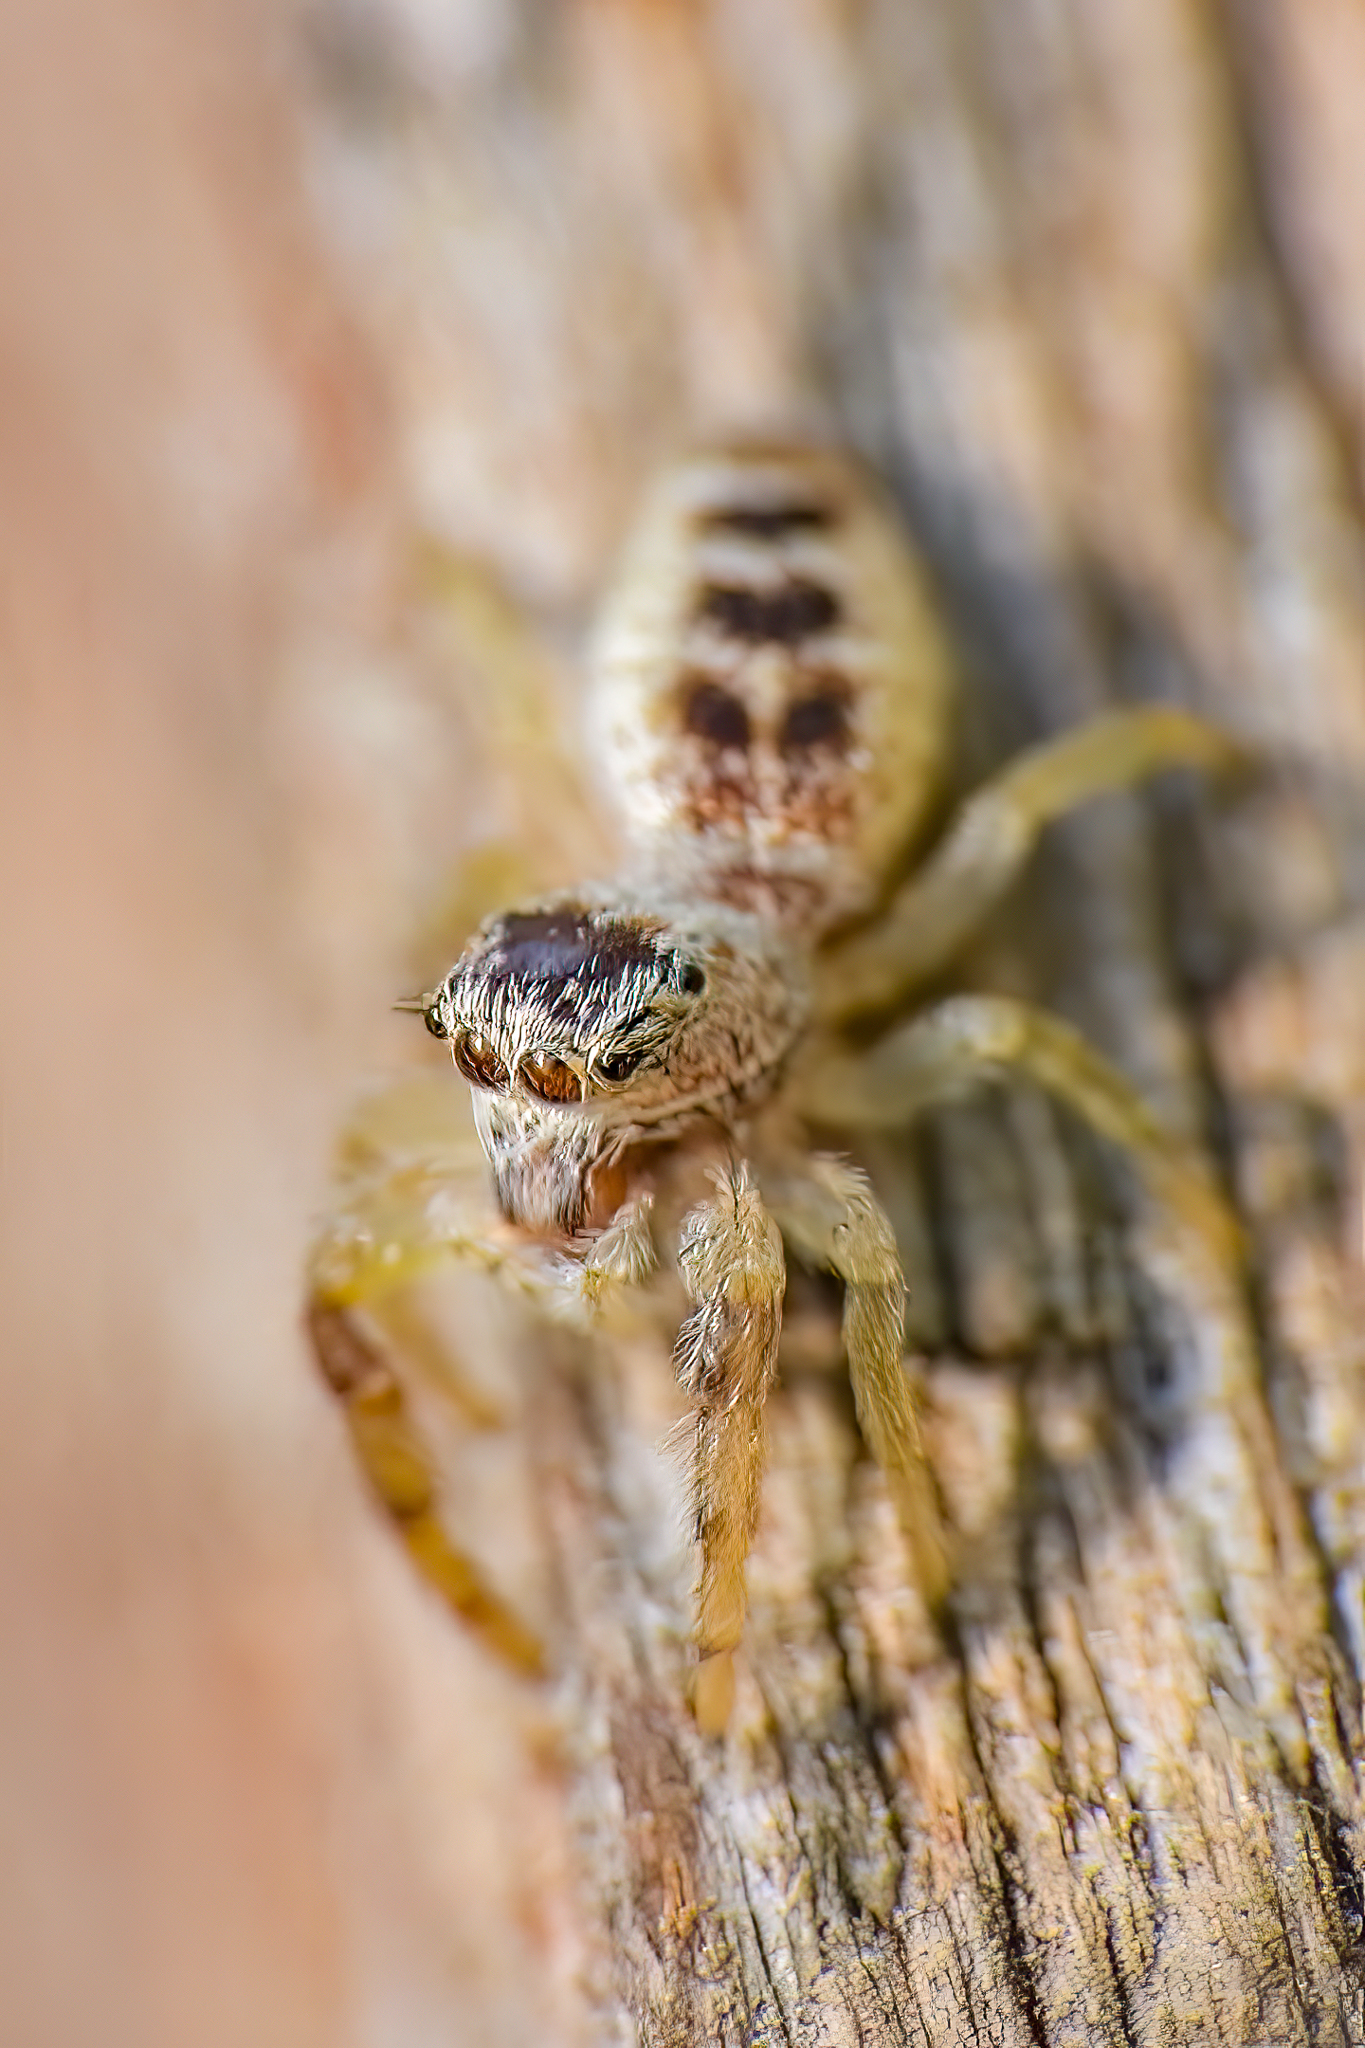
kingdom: Animalia
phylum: Arthropoda
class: Arachnida
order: Araneae
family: Salticidae
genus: Hentzia
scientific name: Hentzia mitrata
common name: White-jawed jumping spider
